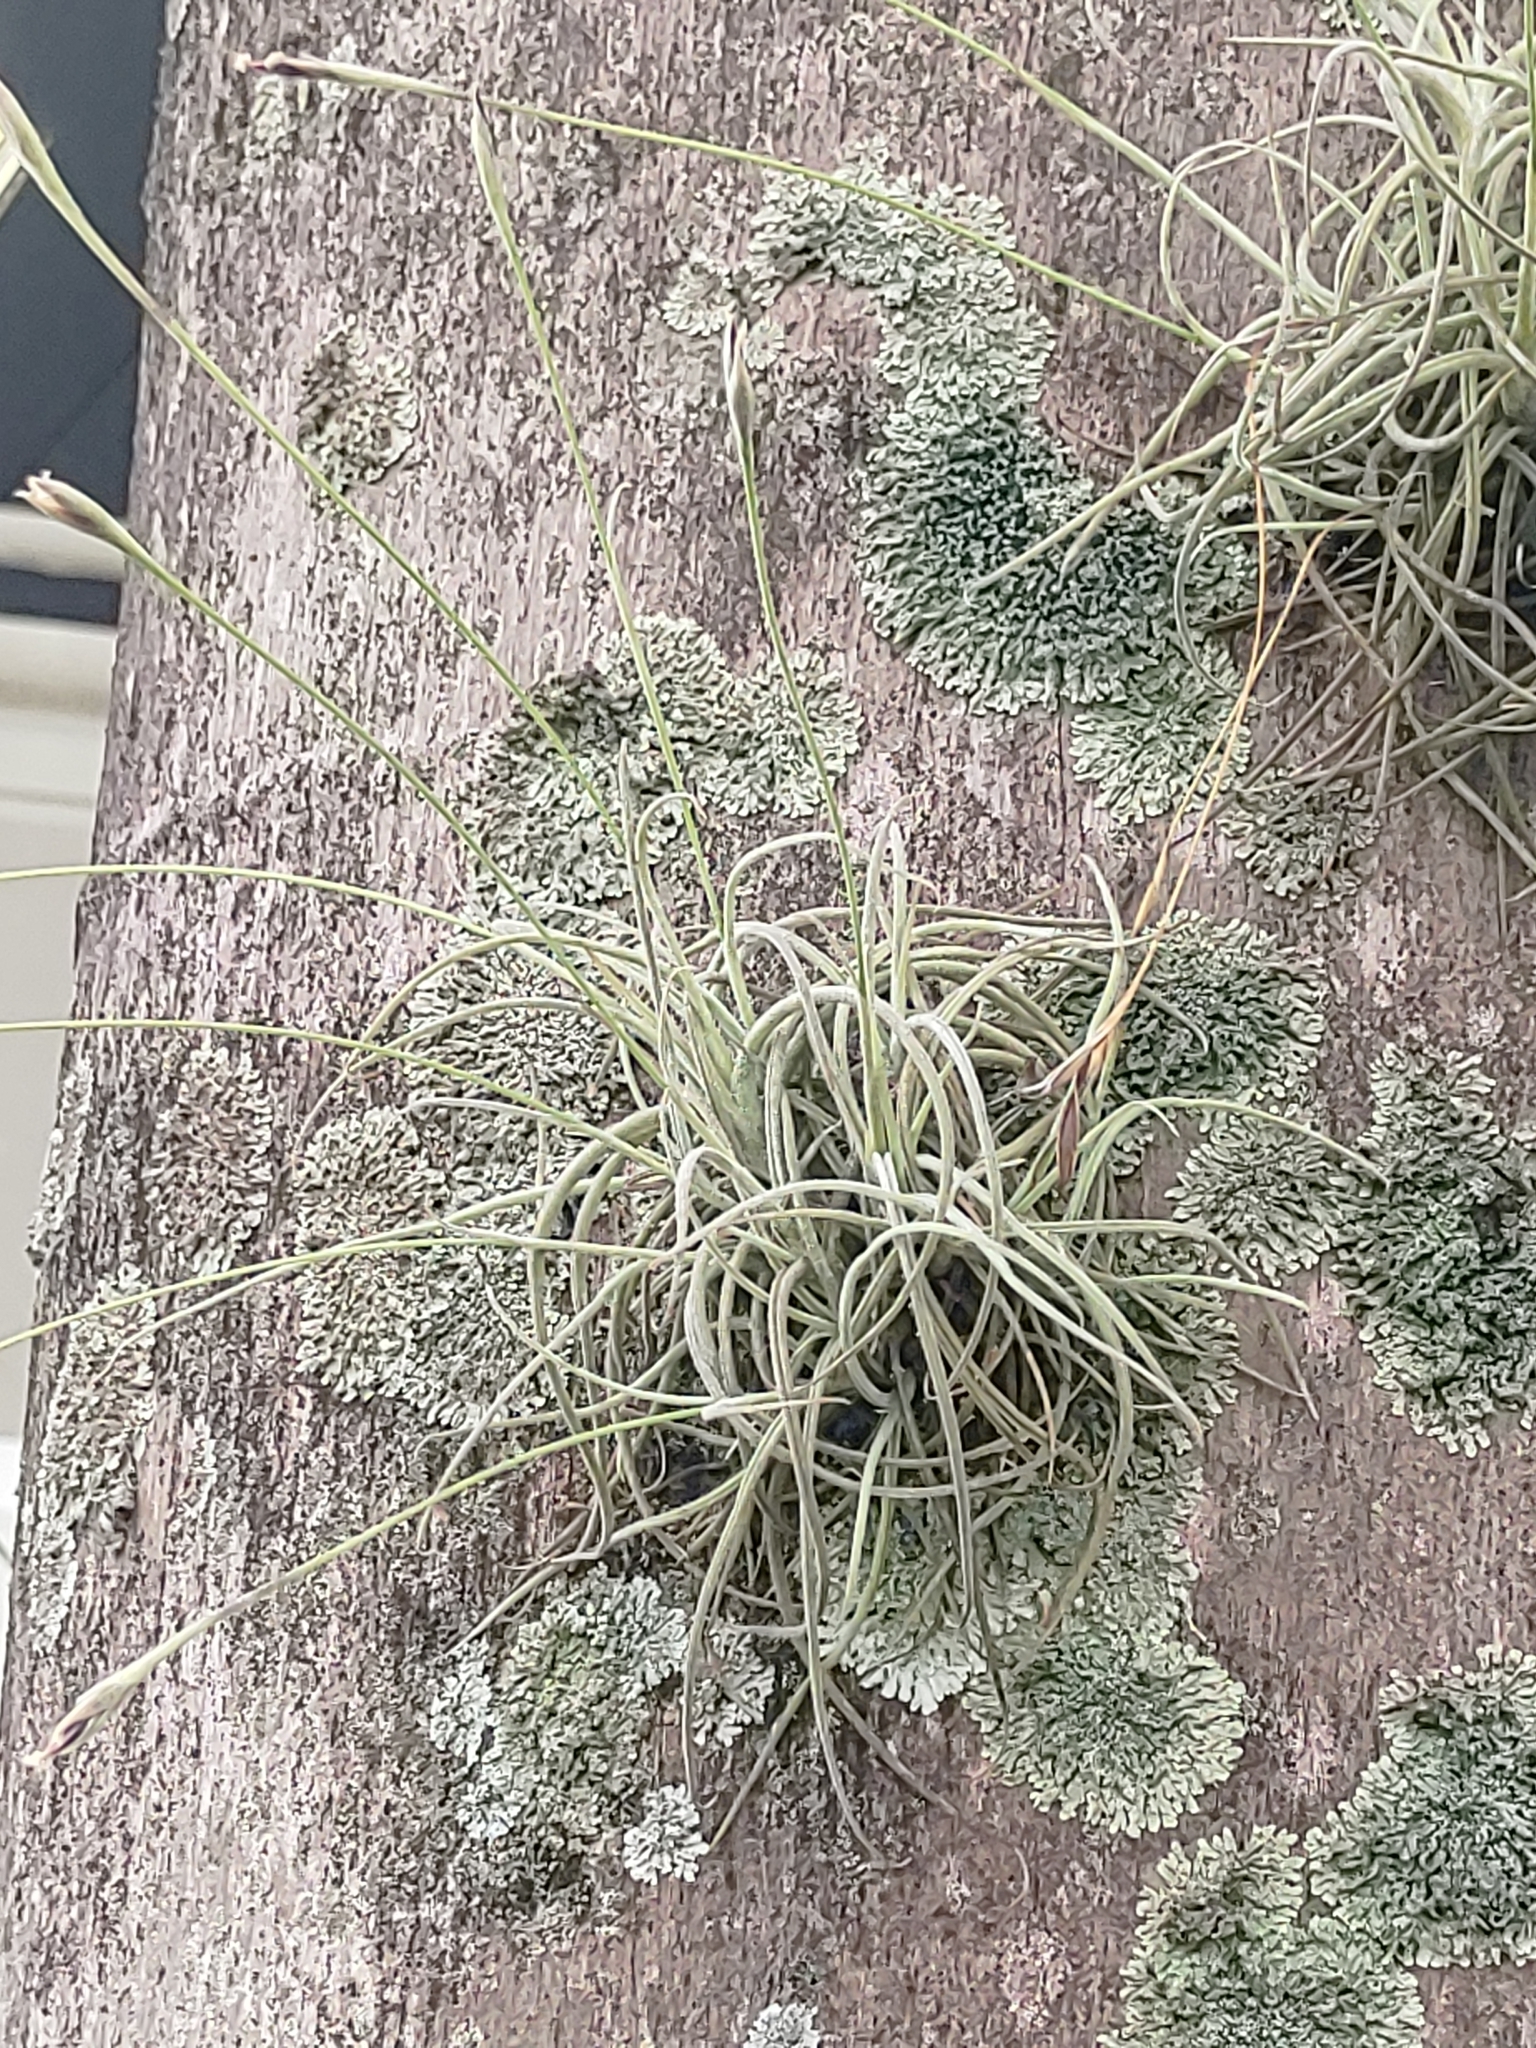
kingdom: Plantae
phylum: Tracheophyta
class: Liliopsida
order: Poales
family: Bromeliaceae
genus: Tillandsia
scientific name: Tillandsia recurvata
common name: Small ballmoss
